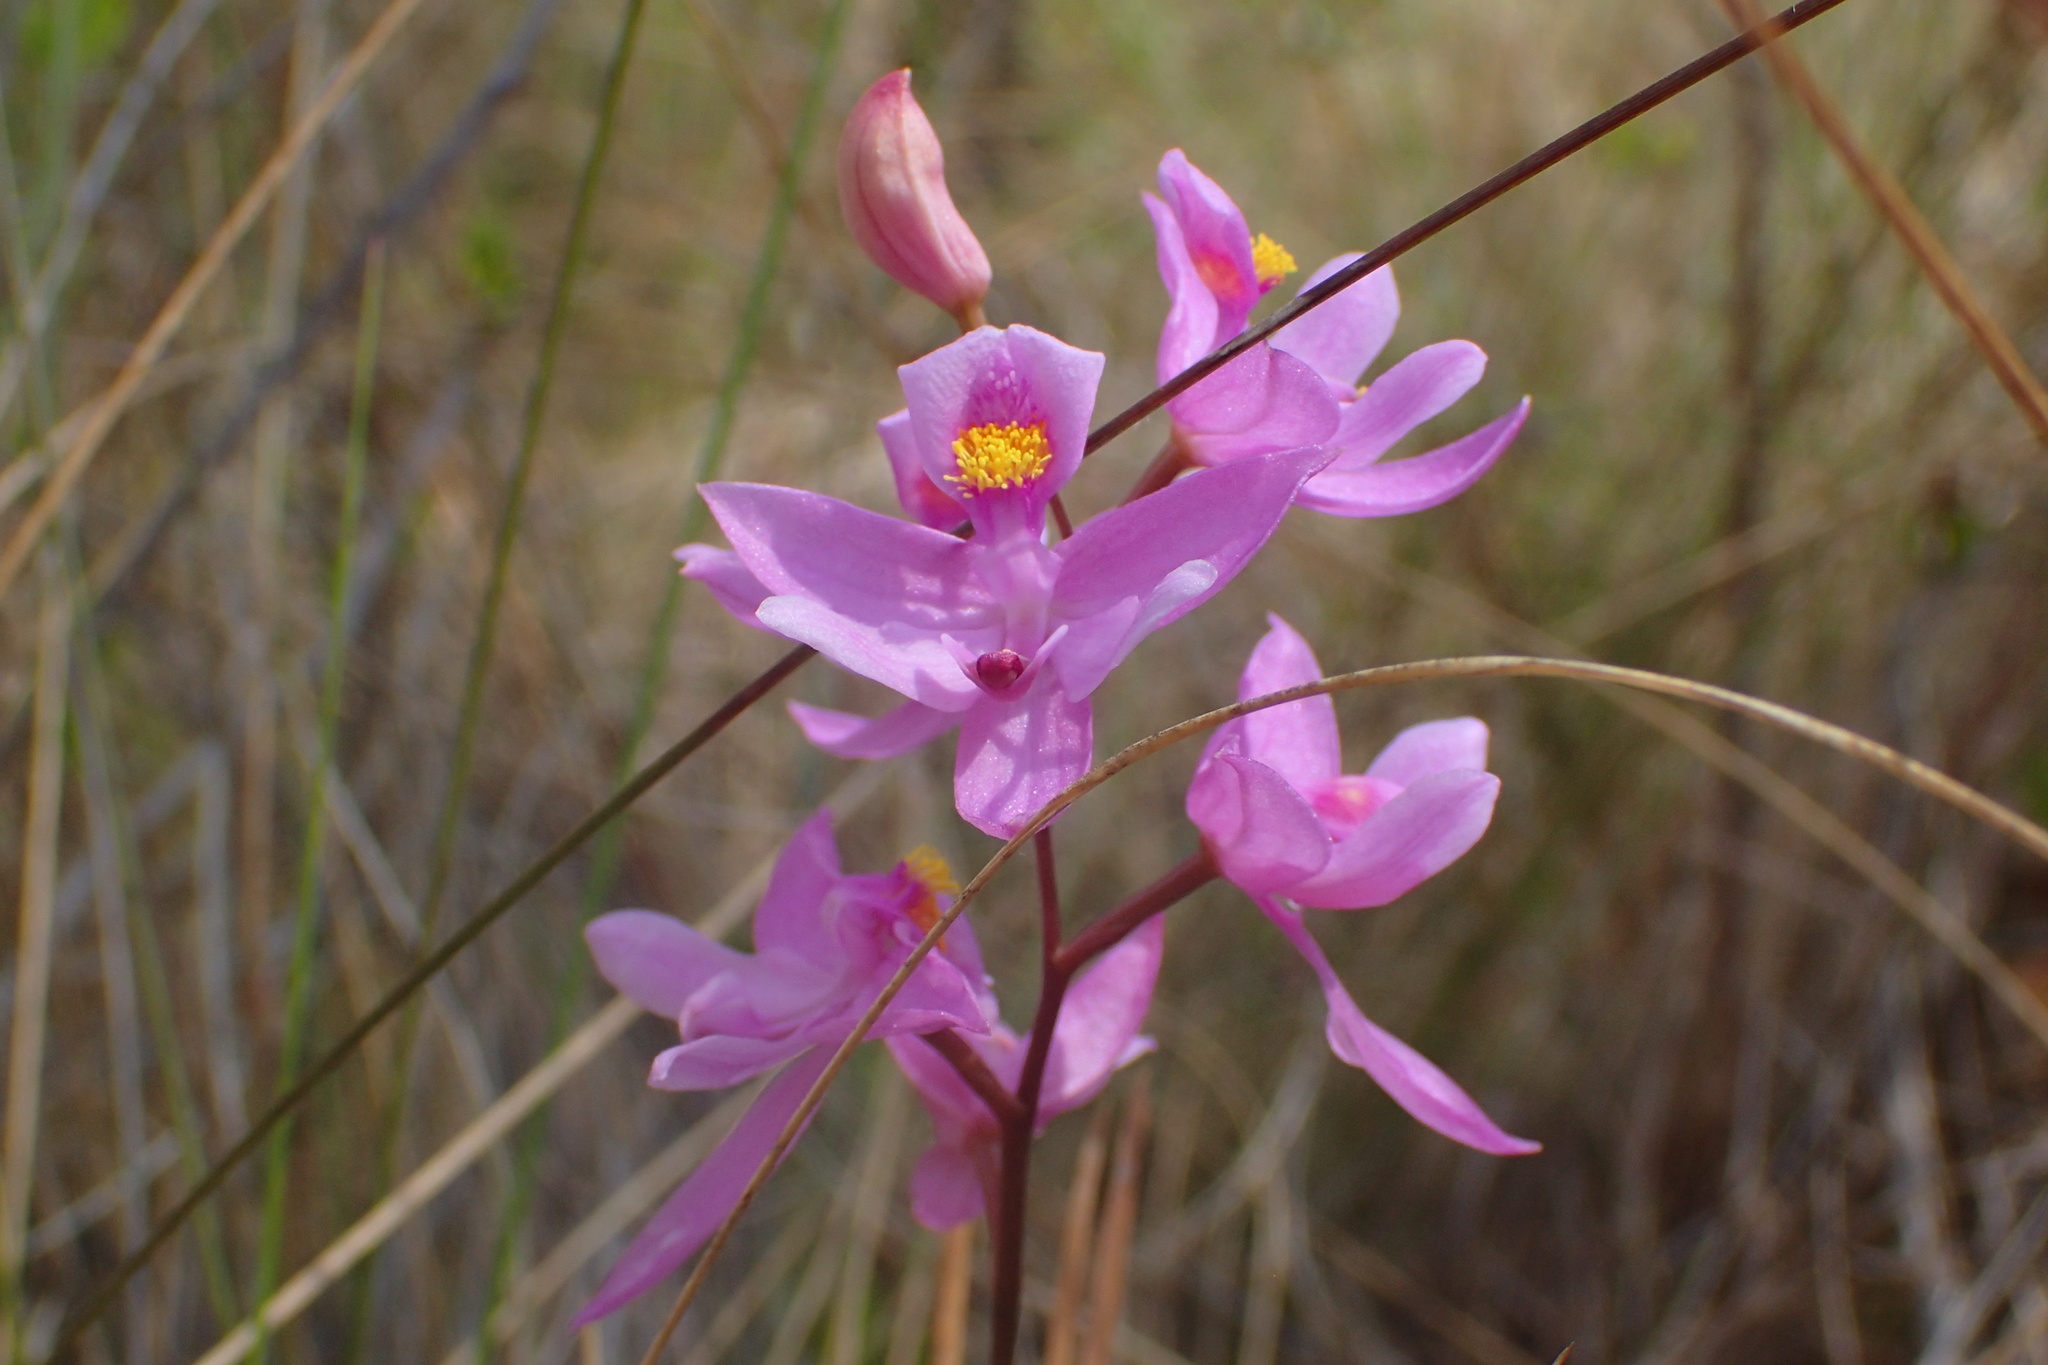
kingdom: Plantae
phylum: Tracheophyta
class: Liliopsida
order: Asparagales
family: Orchidaceae
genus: Calopogon
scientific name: Calopogon barbatus
